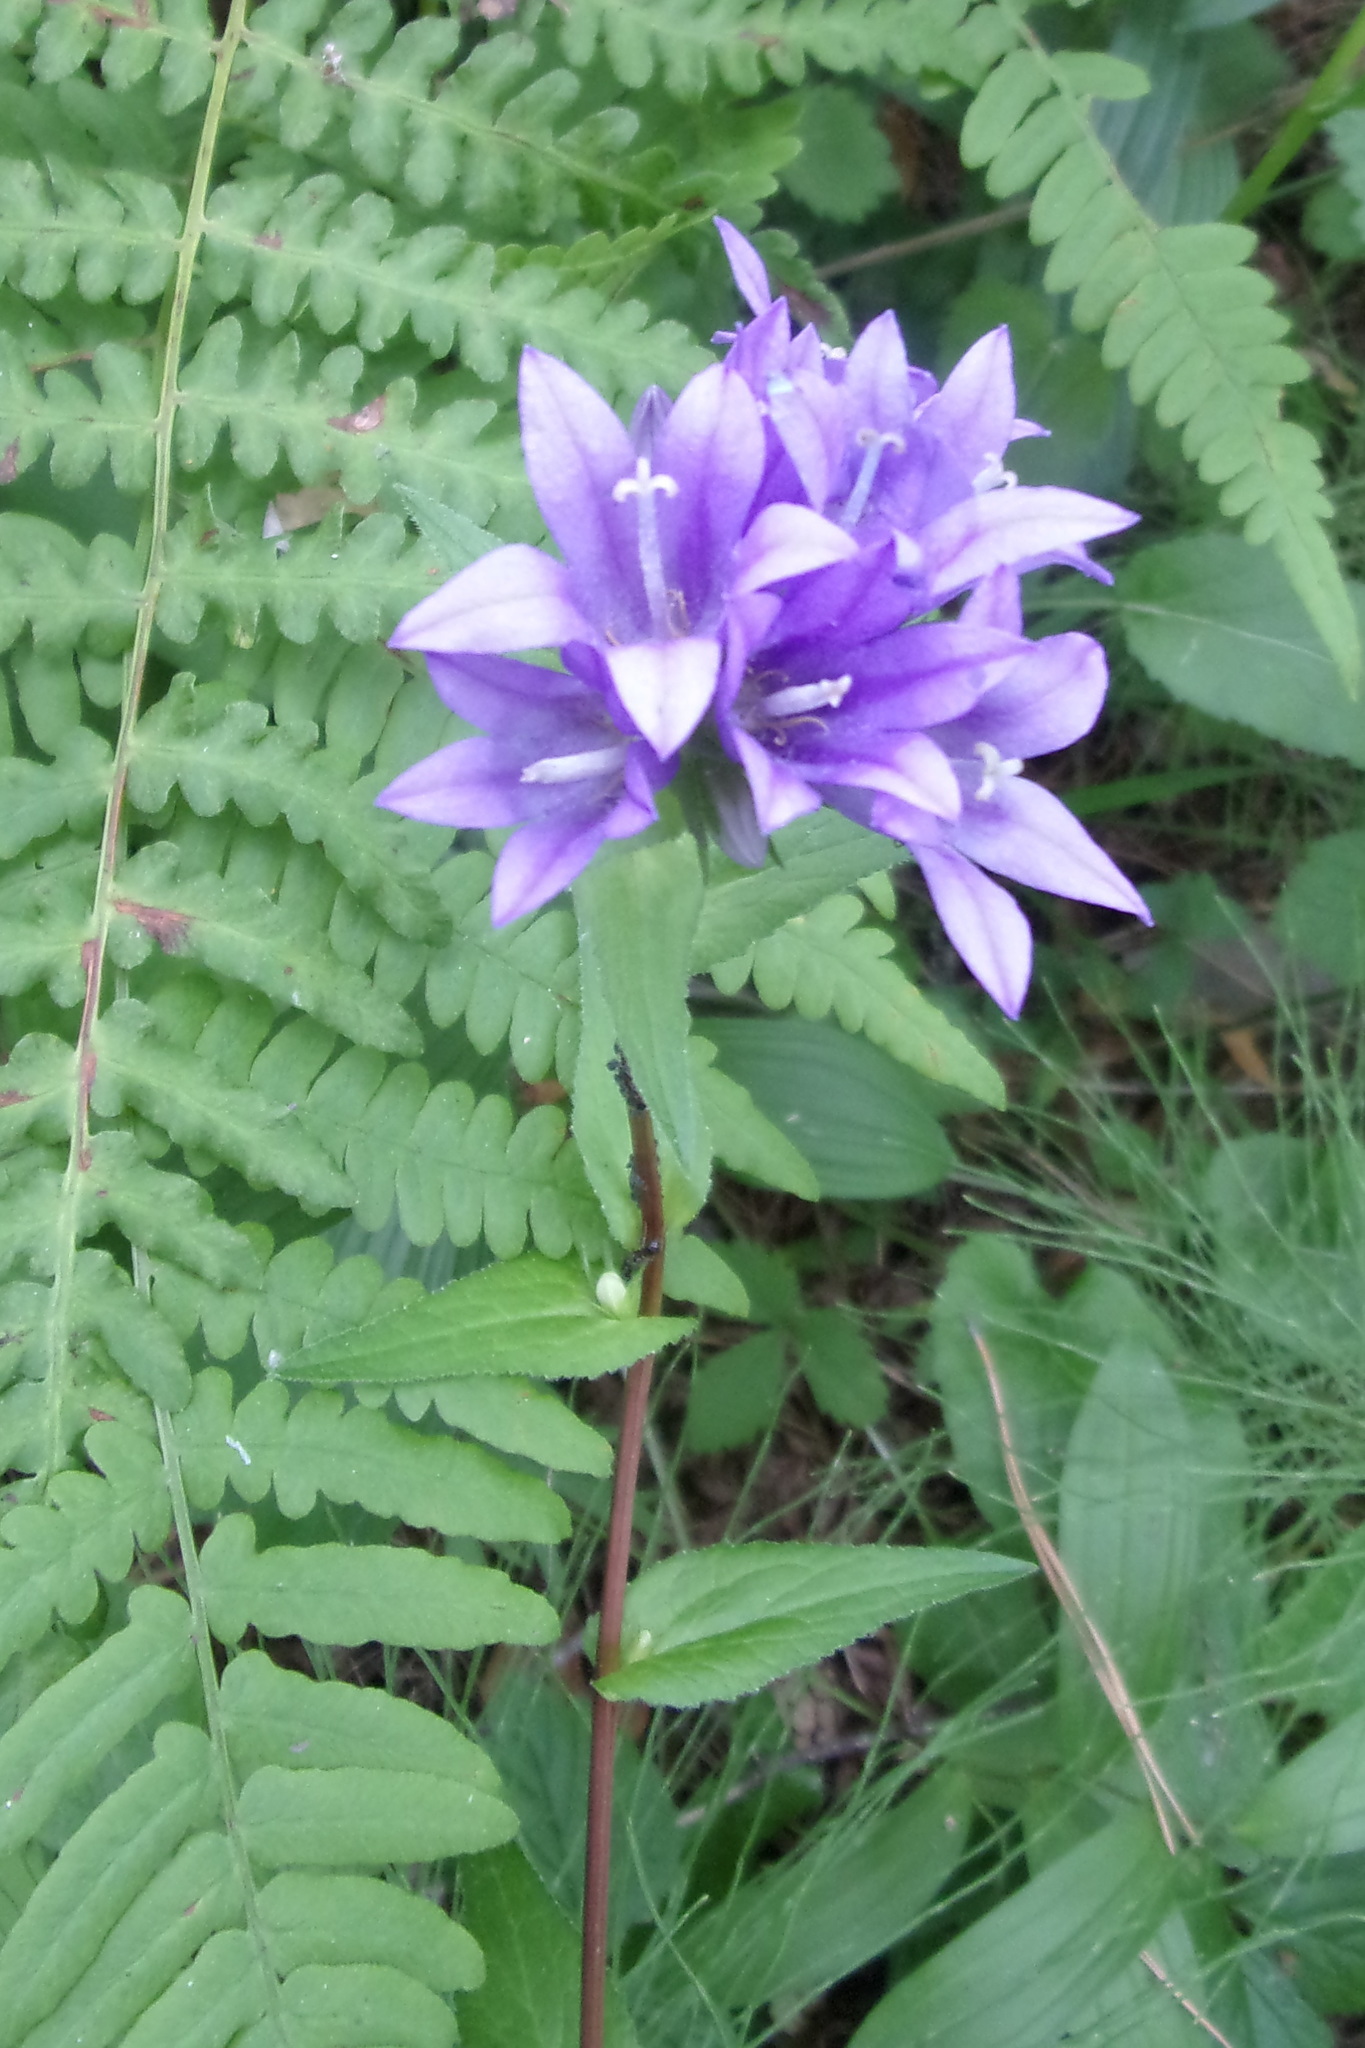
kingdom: Plantae
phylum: Tracheophyta
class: Magnoliopsida
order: Asterales
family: Campanulaceae
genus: Campanula
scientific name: Campanula glomerata
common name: Clustered bellflower
